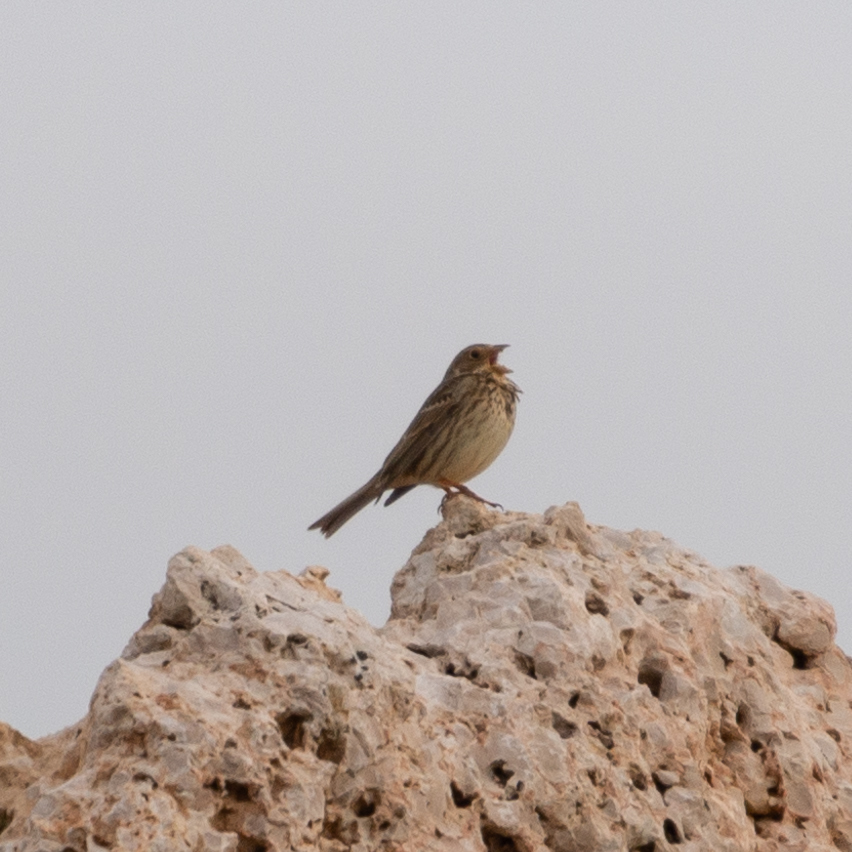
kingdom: Animalia
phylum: Chordata
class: Aves
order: Passeriformes
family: Emberizidae
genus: Emberiza
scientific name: Emberiza calandra
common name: Corn bunting
